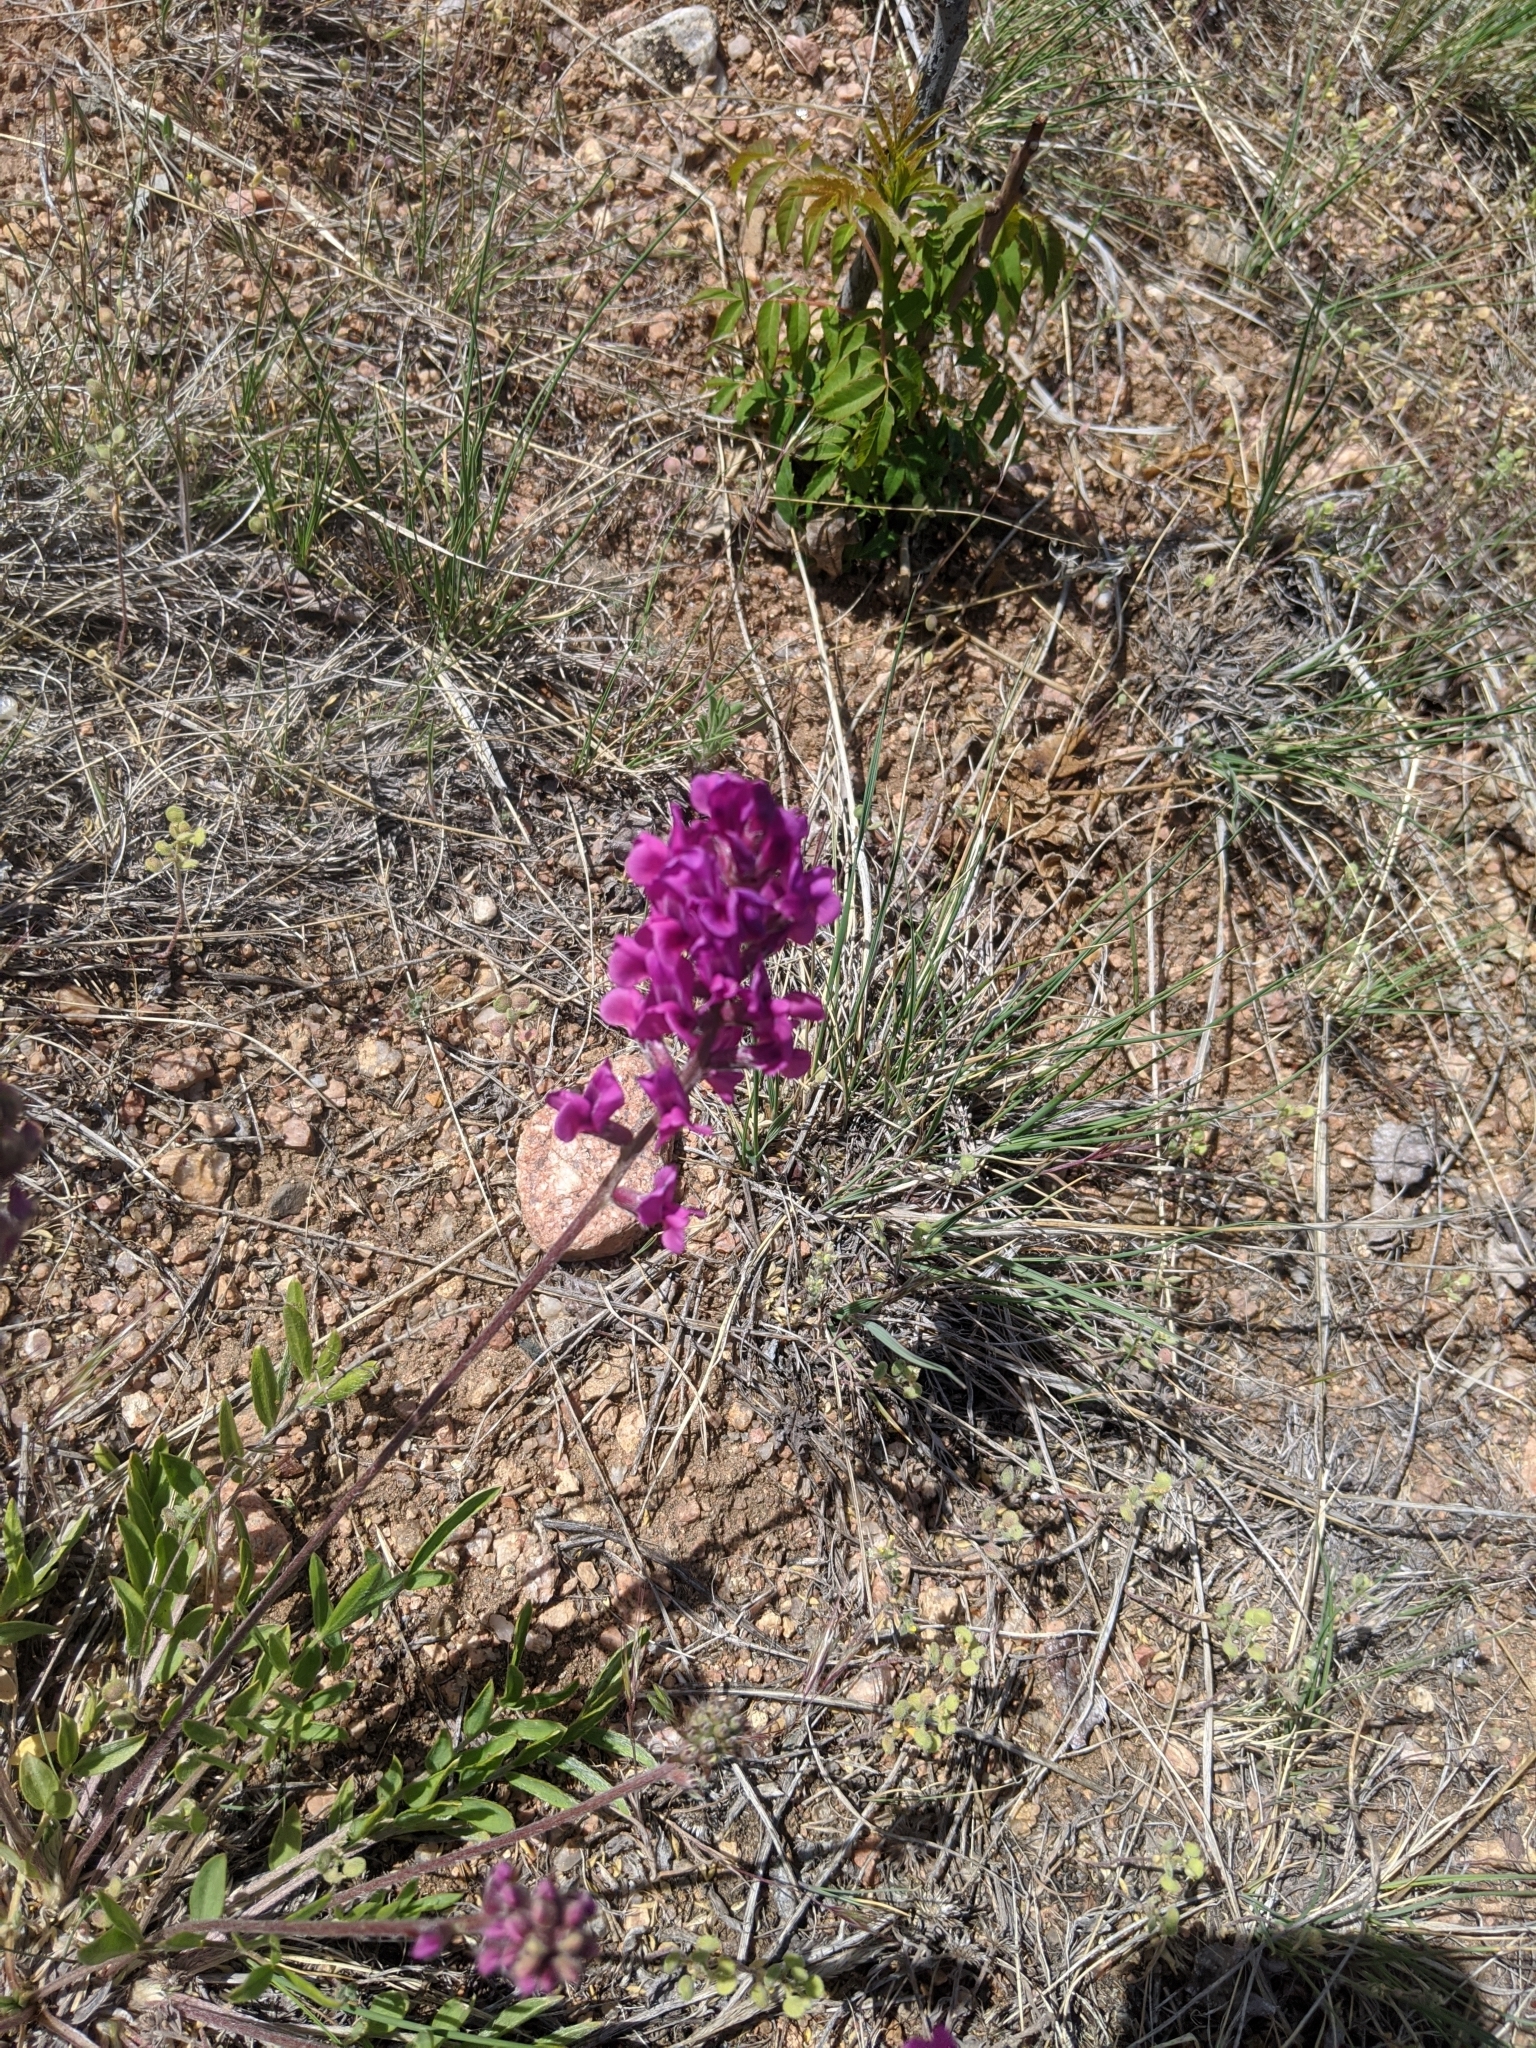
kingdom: Plantae
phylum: Tracheophyta
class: Magnoliopsida
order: Fabales
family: Fabaceae
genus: Oxytropis
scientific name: Oxytropis lambertii
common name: Purple locoweed
